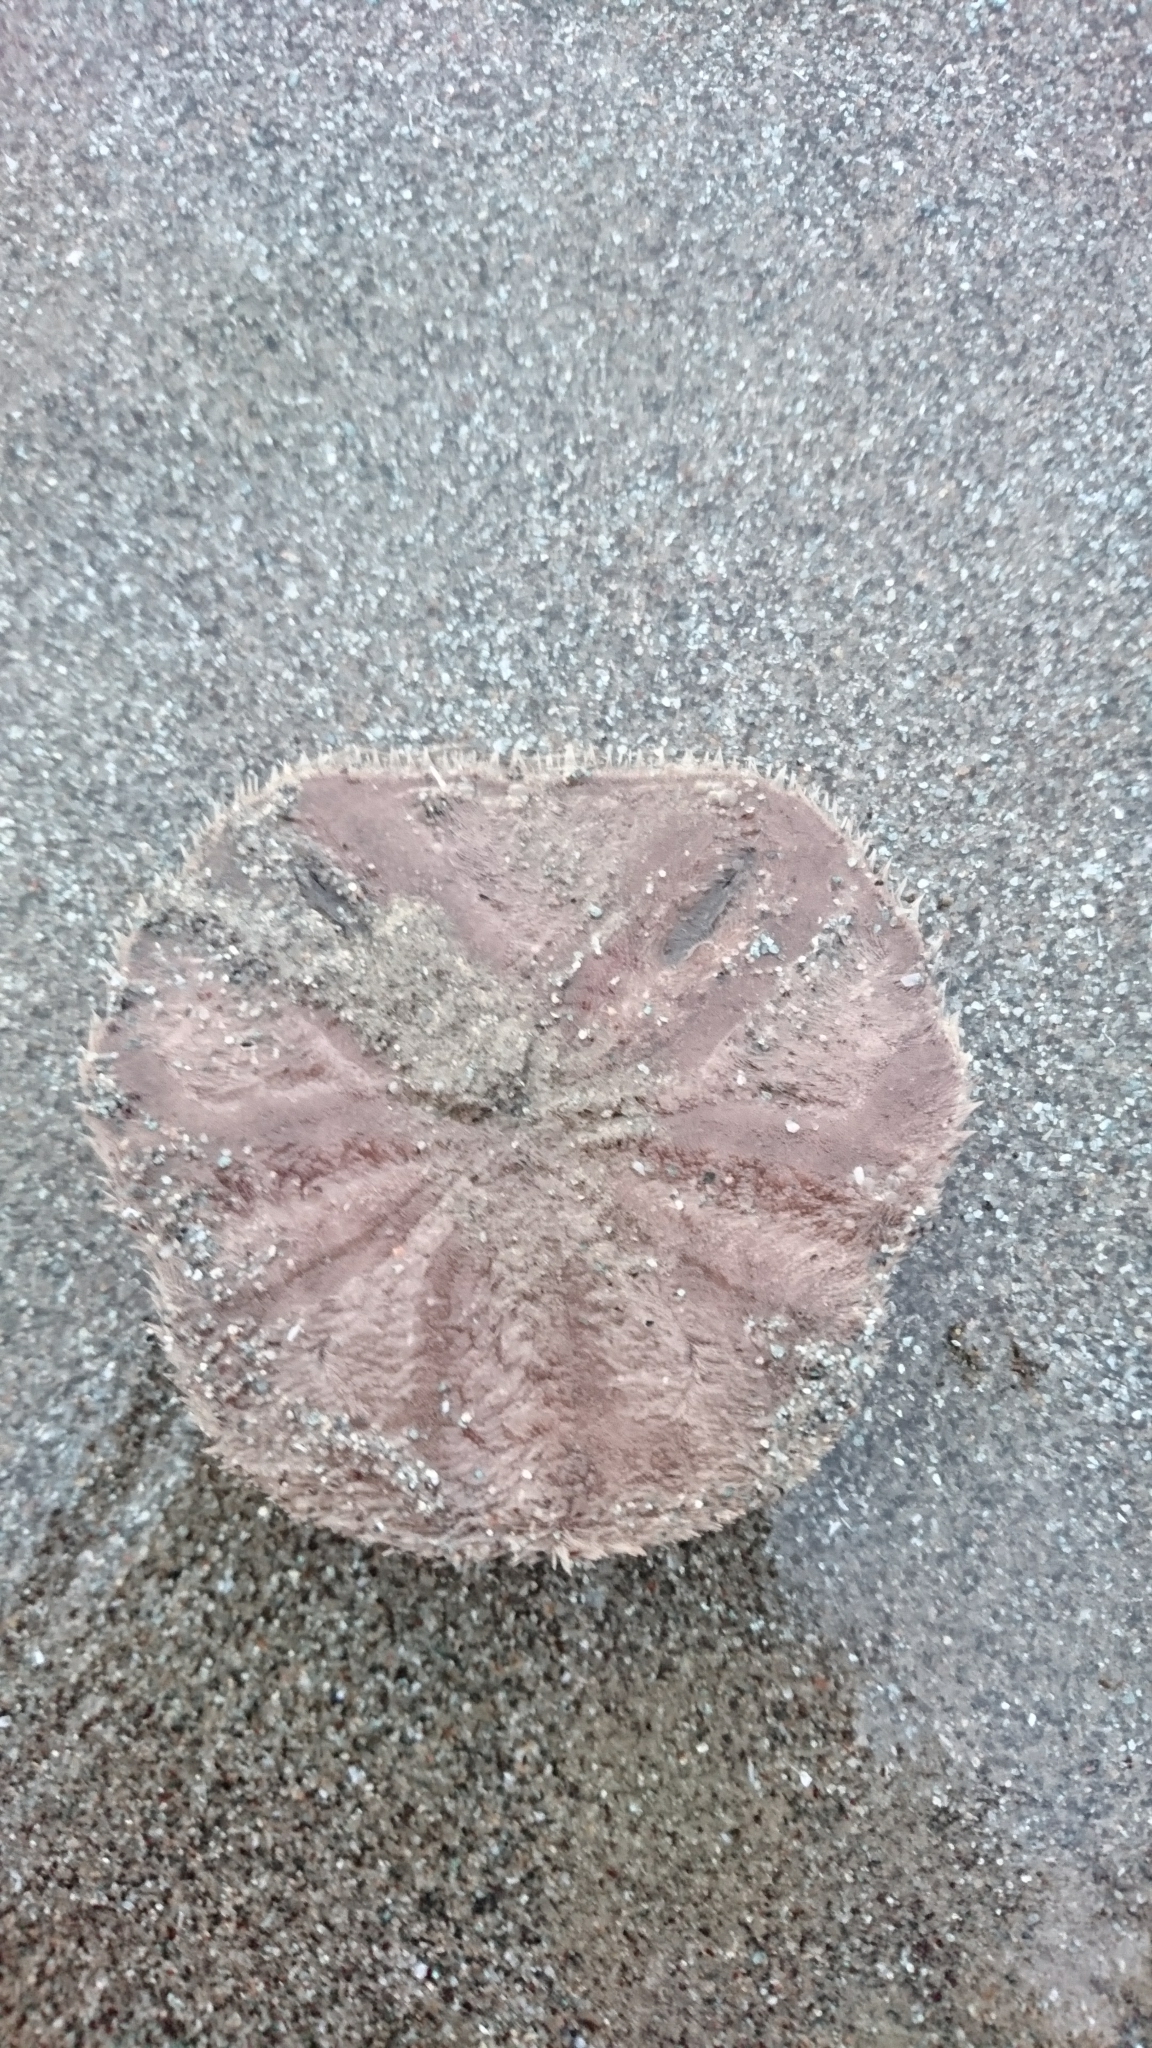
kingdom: Animalia
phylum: Echinodermata
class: Echinoidea
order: Echinolampadacea
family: Astriclypeidae
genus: Echinodiscus
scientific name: Echinodiscus
